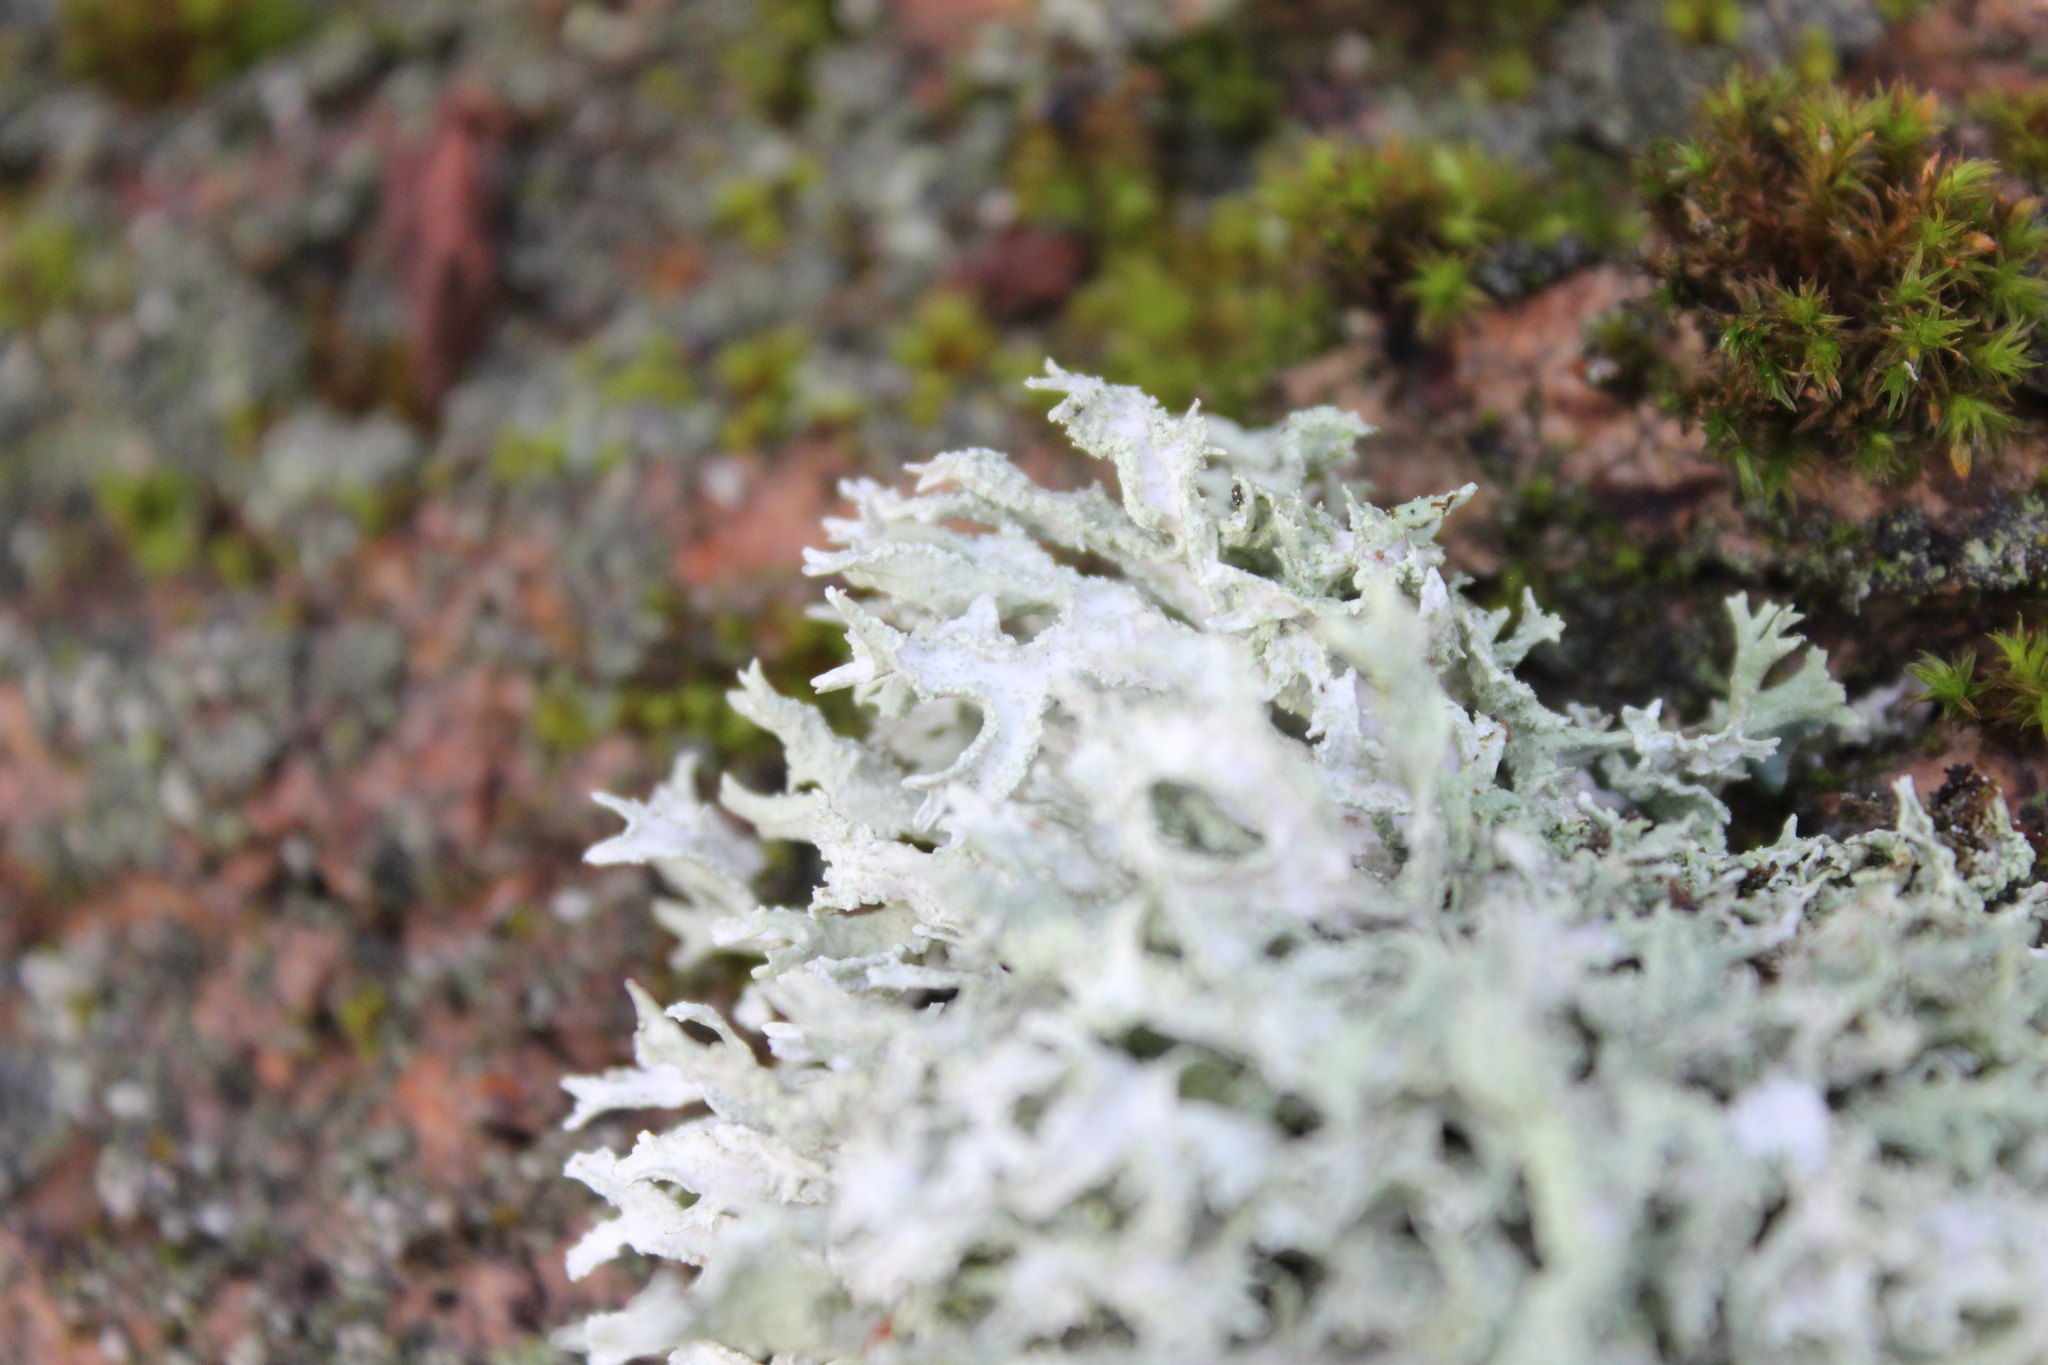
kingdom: Fungi
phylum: Ascomycota
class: Lecanoromycetes
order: Lecanorales
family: Parmeliaceae
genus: Evernia
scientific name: Evernia prunastri
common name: Oak moss
